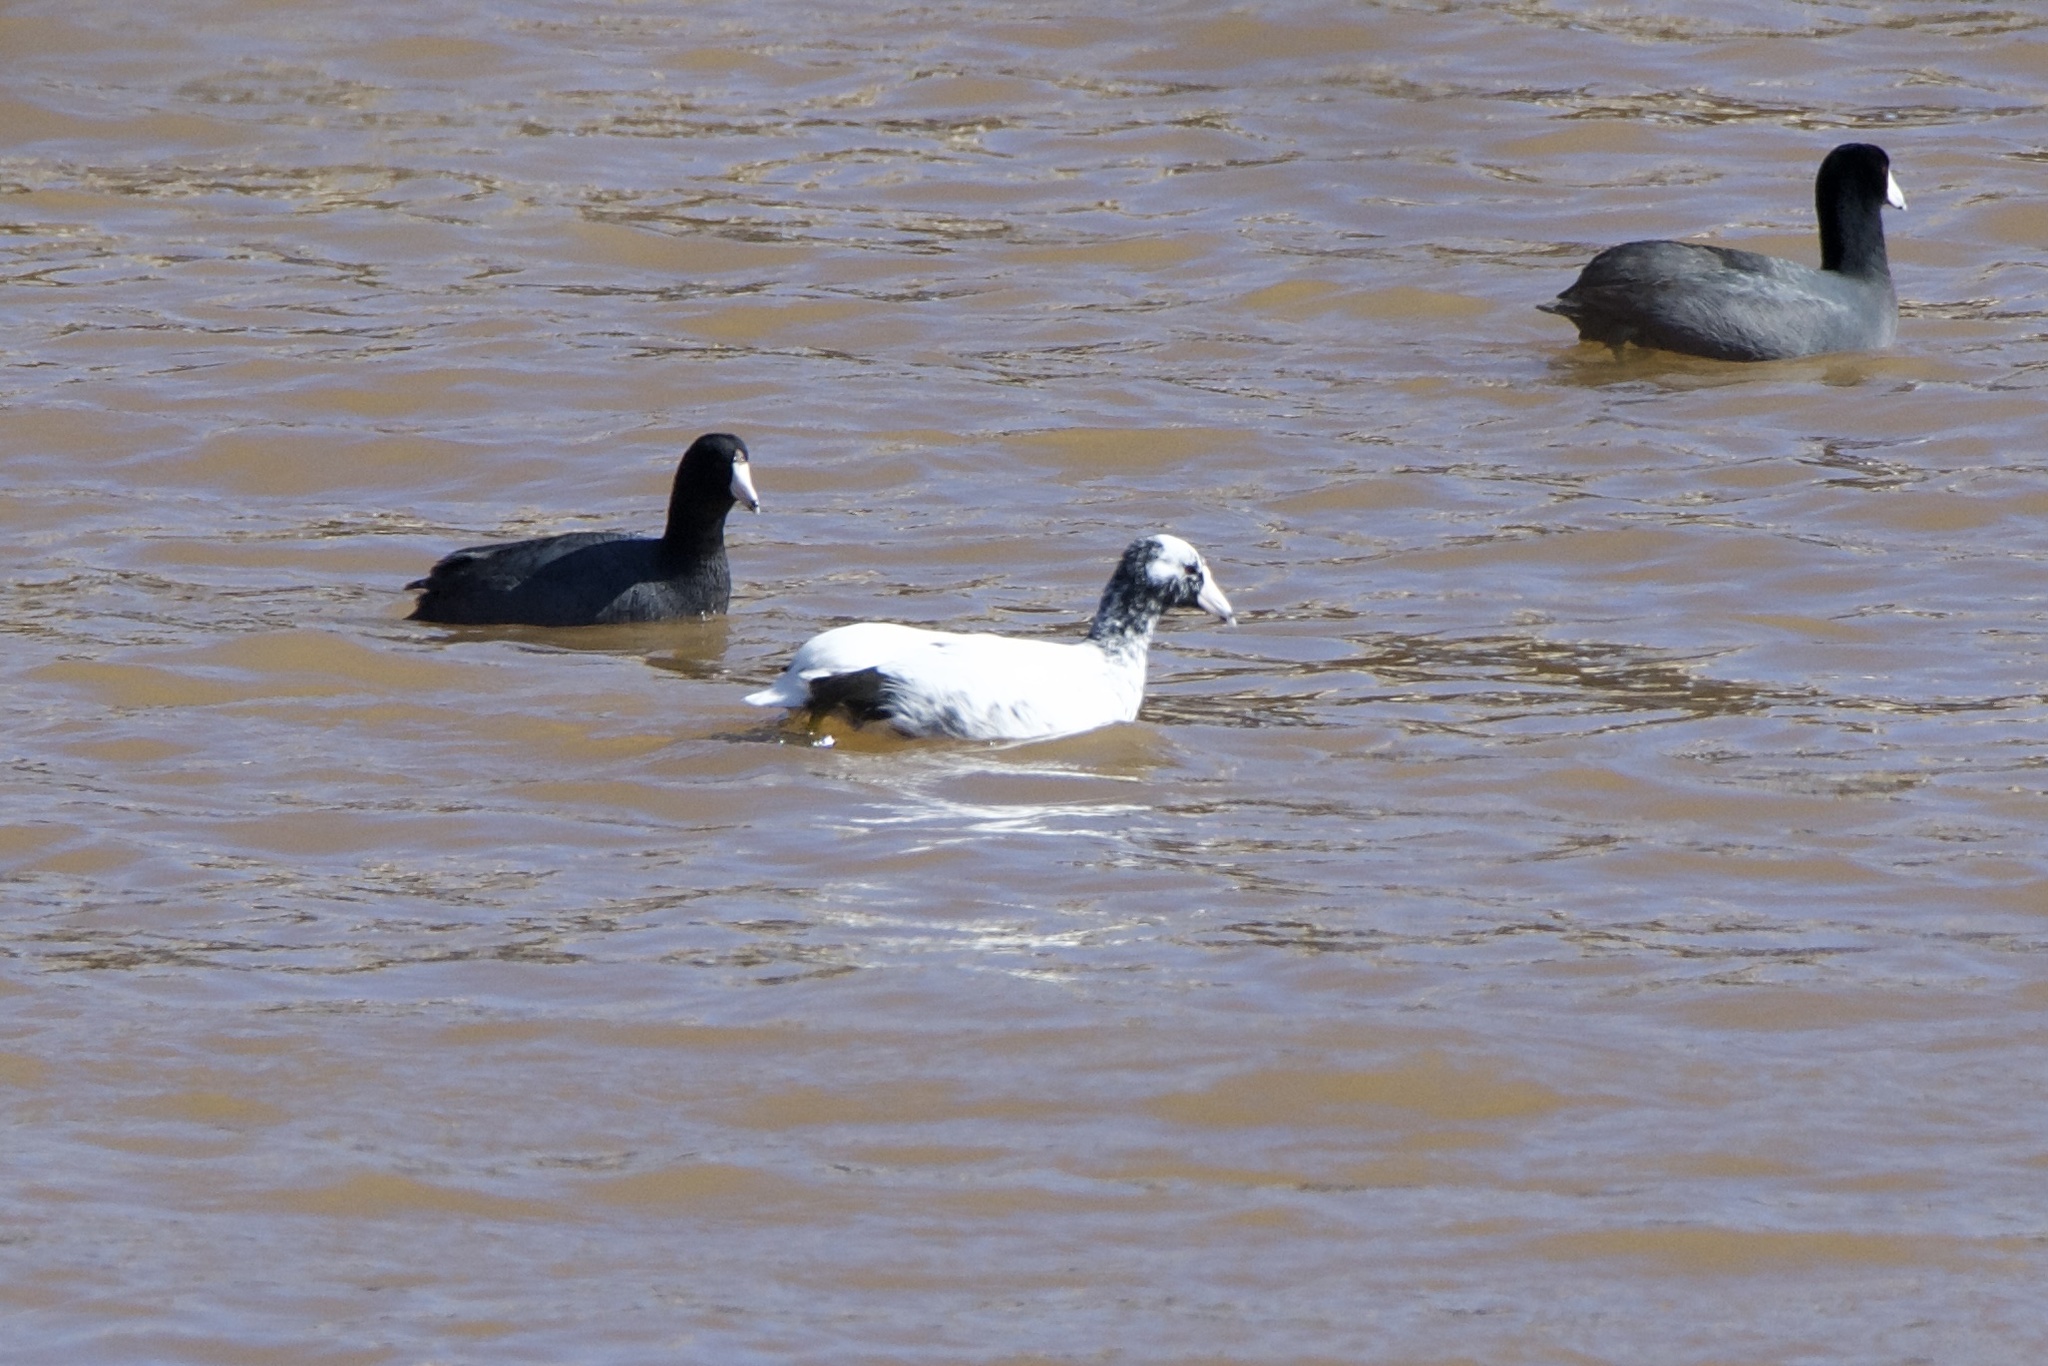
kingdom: Animalia
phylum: Chordata
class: Aves
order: Gruiformes
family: Rallidae
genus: Fulica
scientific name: Fulica americana
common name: American coot
